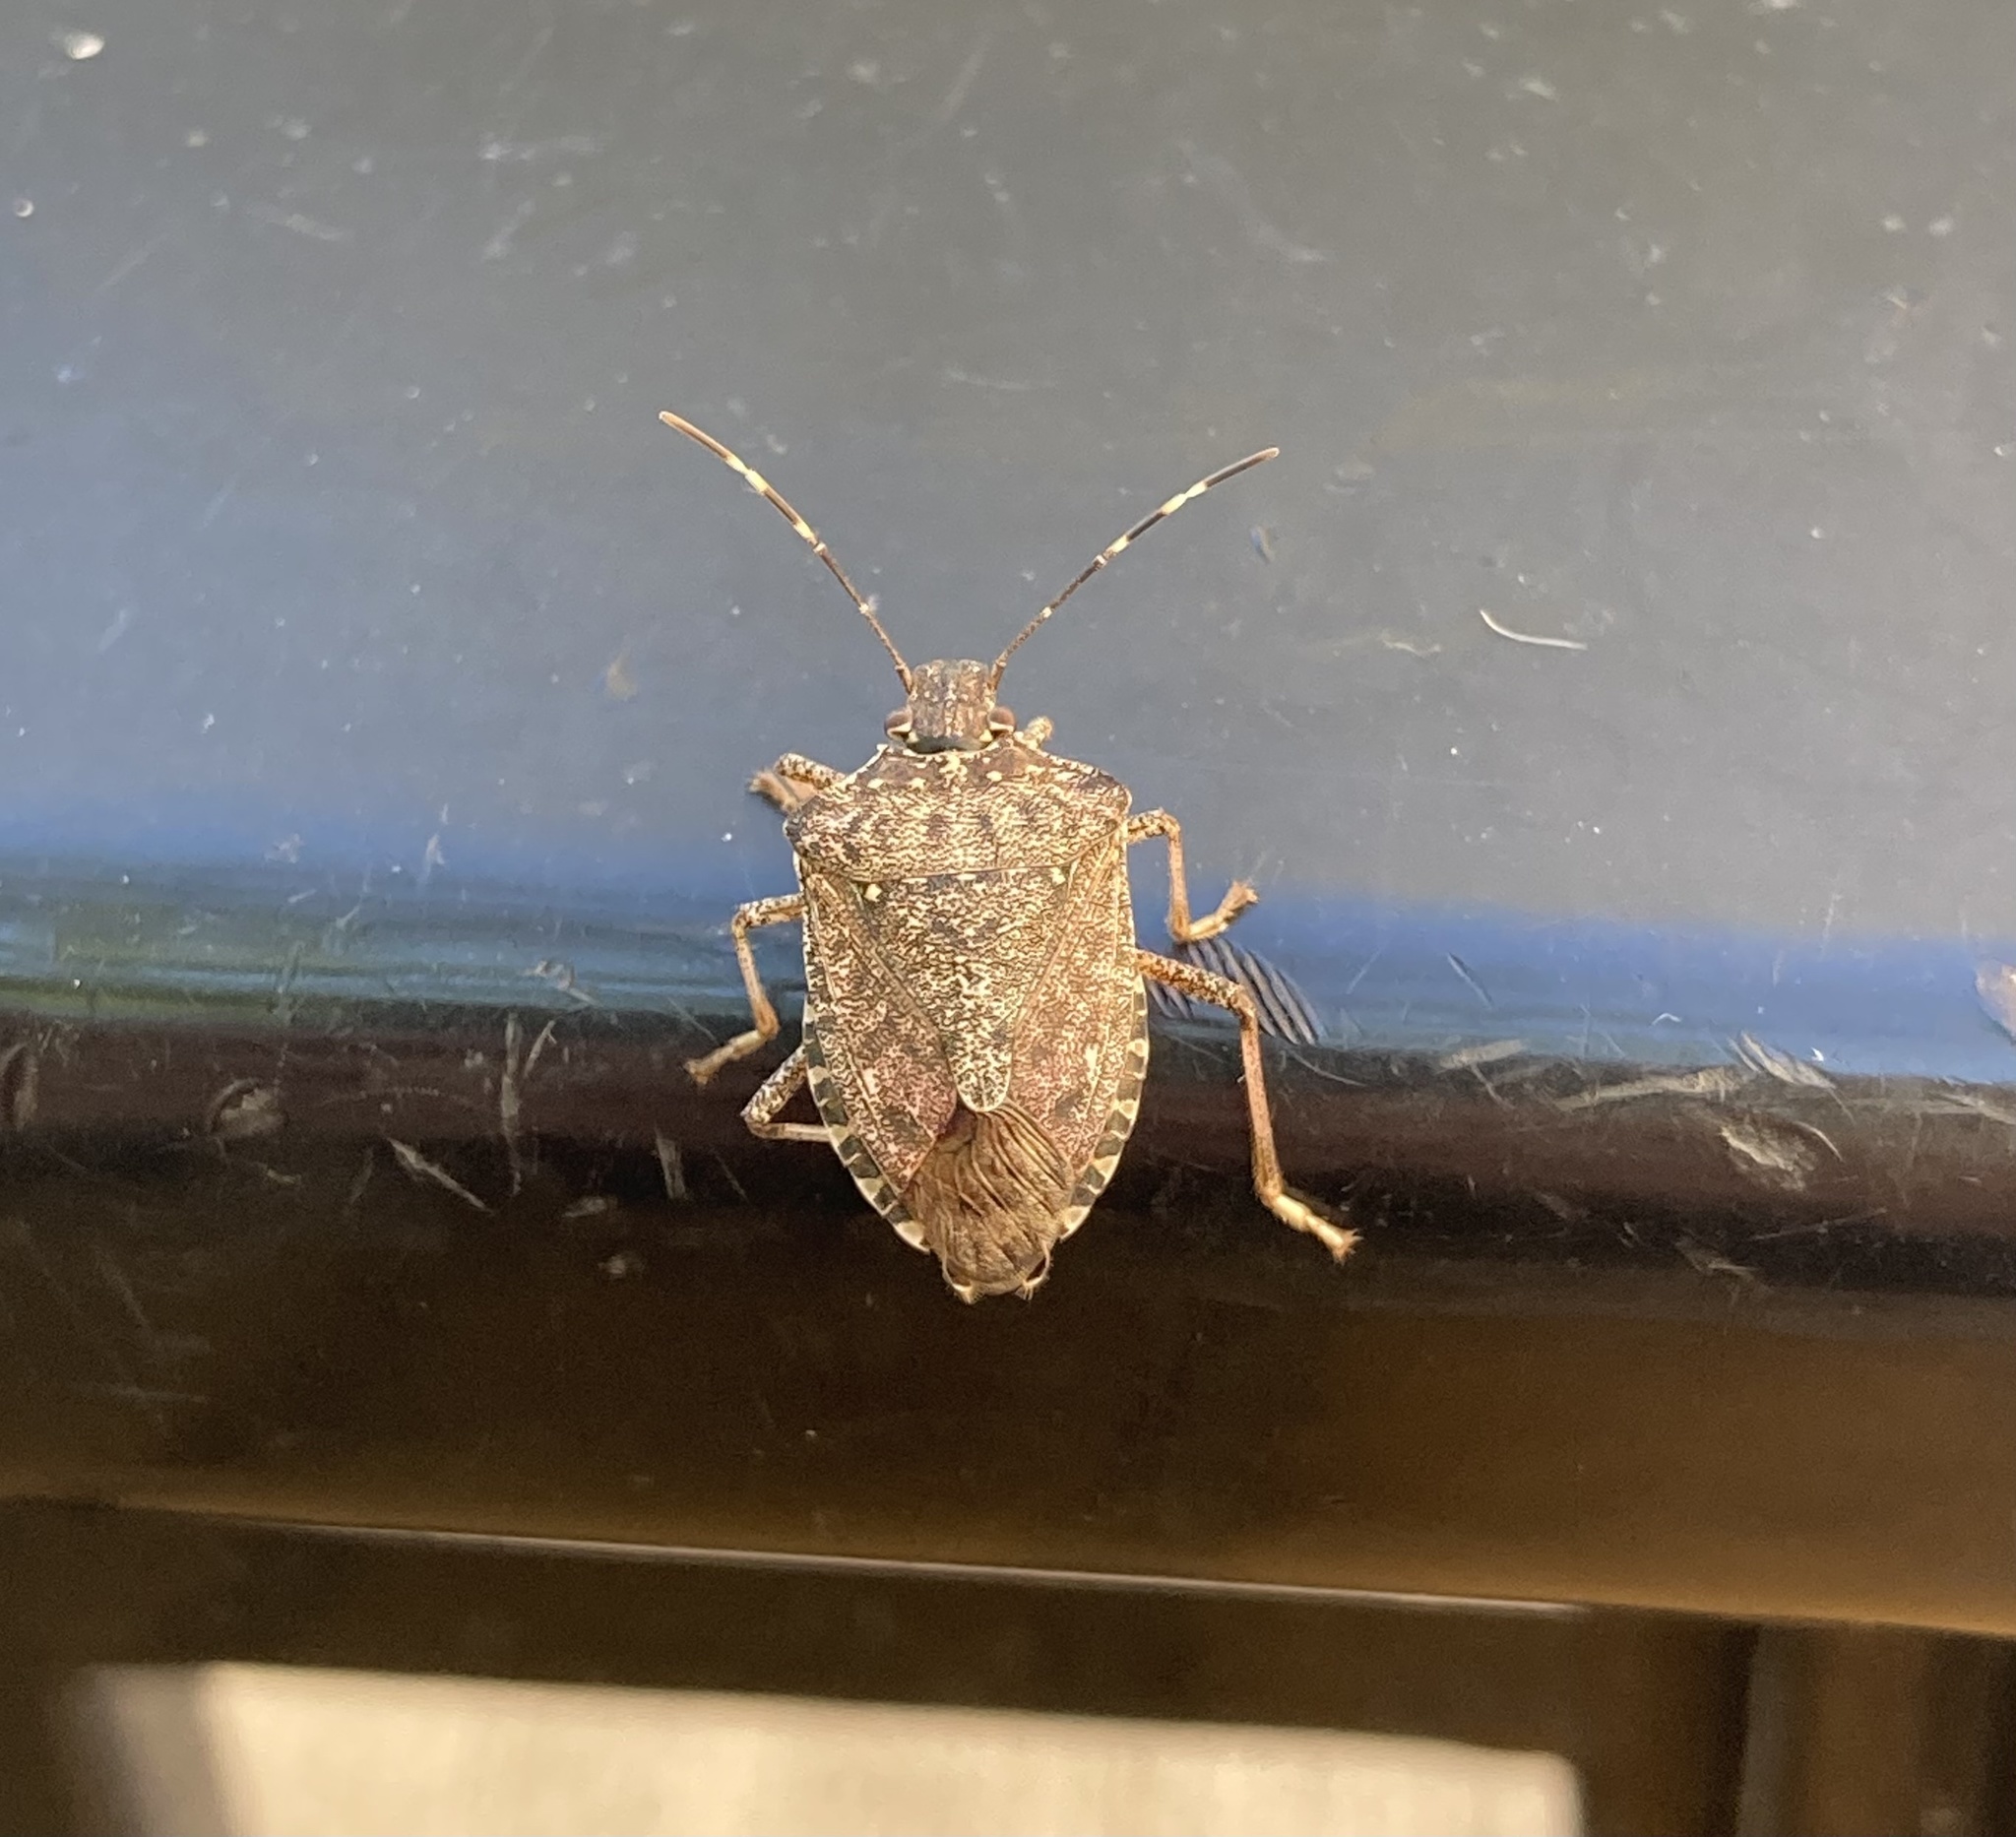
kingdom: Animalia
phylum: Arthropoda
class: Insecta
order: Hemiptera
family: Pentatomidae
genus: Halyomorpha
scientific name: Halyomorpha halys
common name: Brown marmorated stink bug
